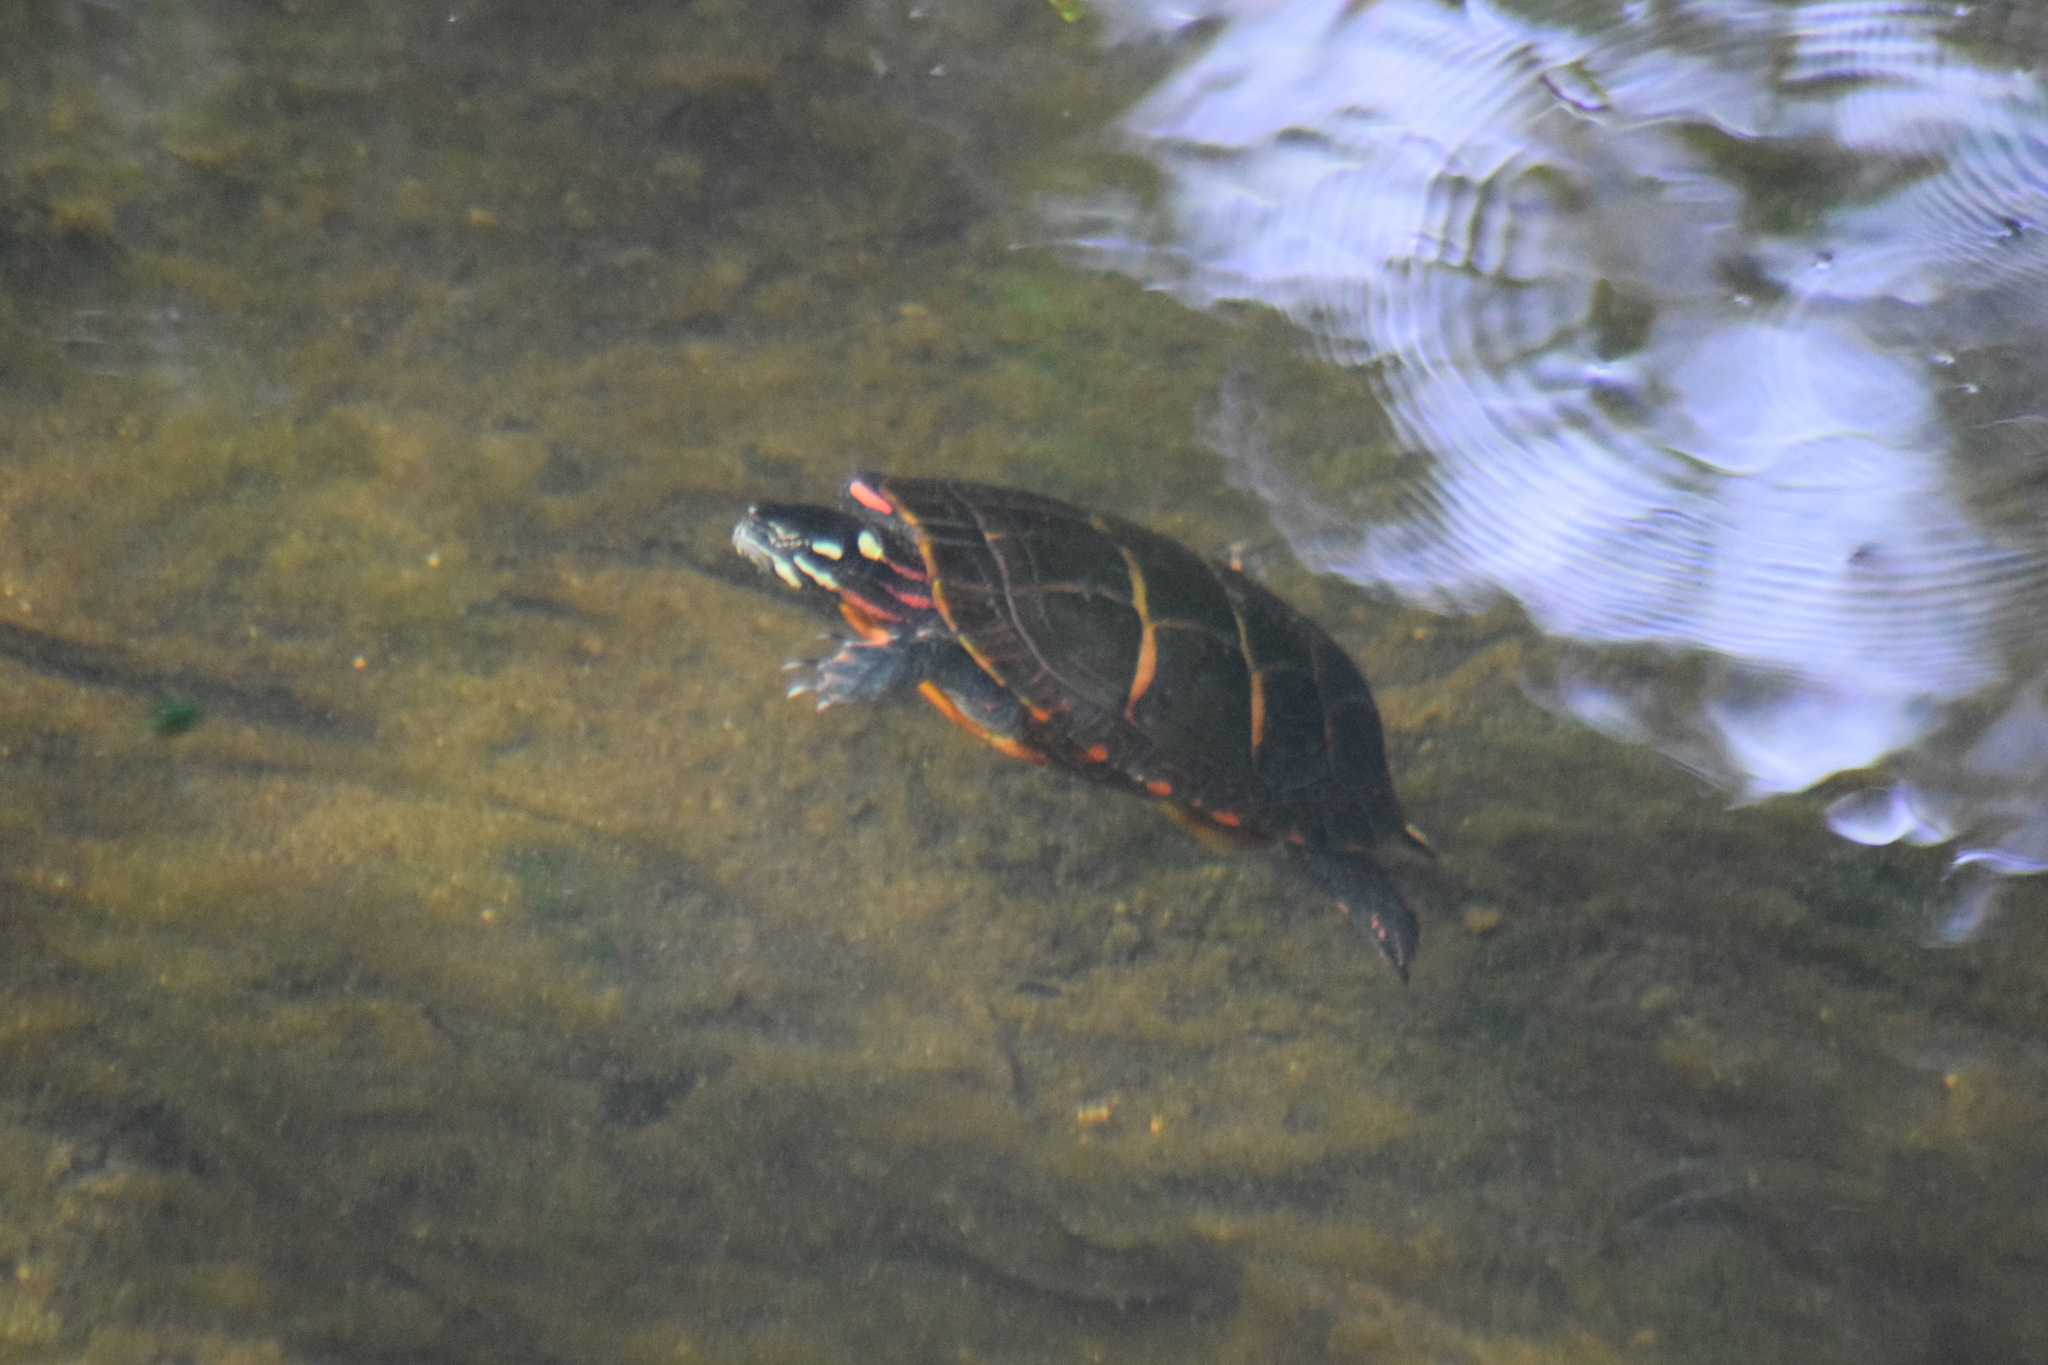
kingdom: Animalia
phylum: Chordata
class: Testudines
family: Emydidae
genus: Chrysemys
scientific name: Chrysemys picta
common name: Painted turtle
